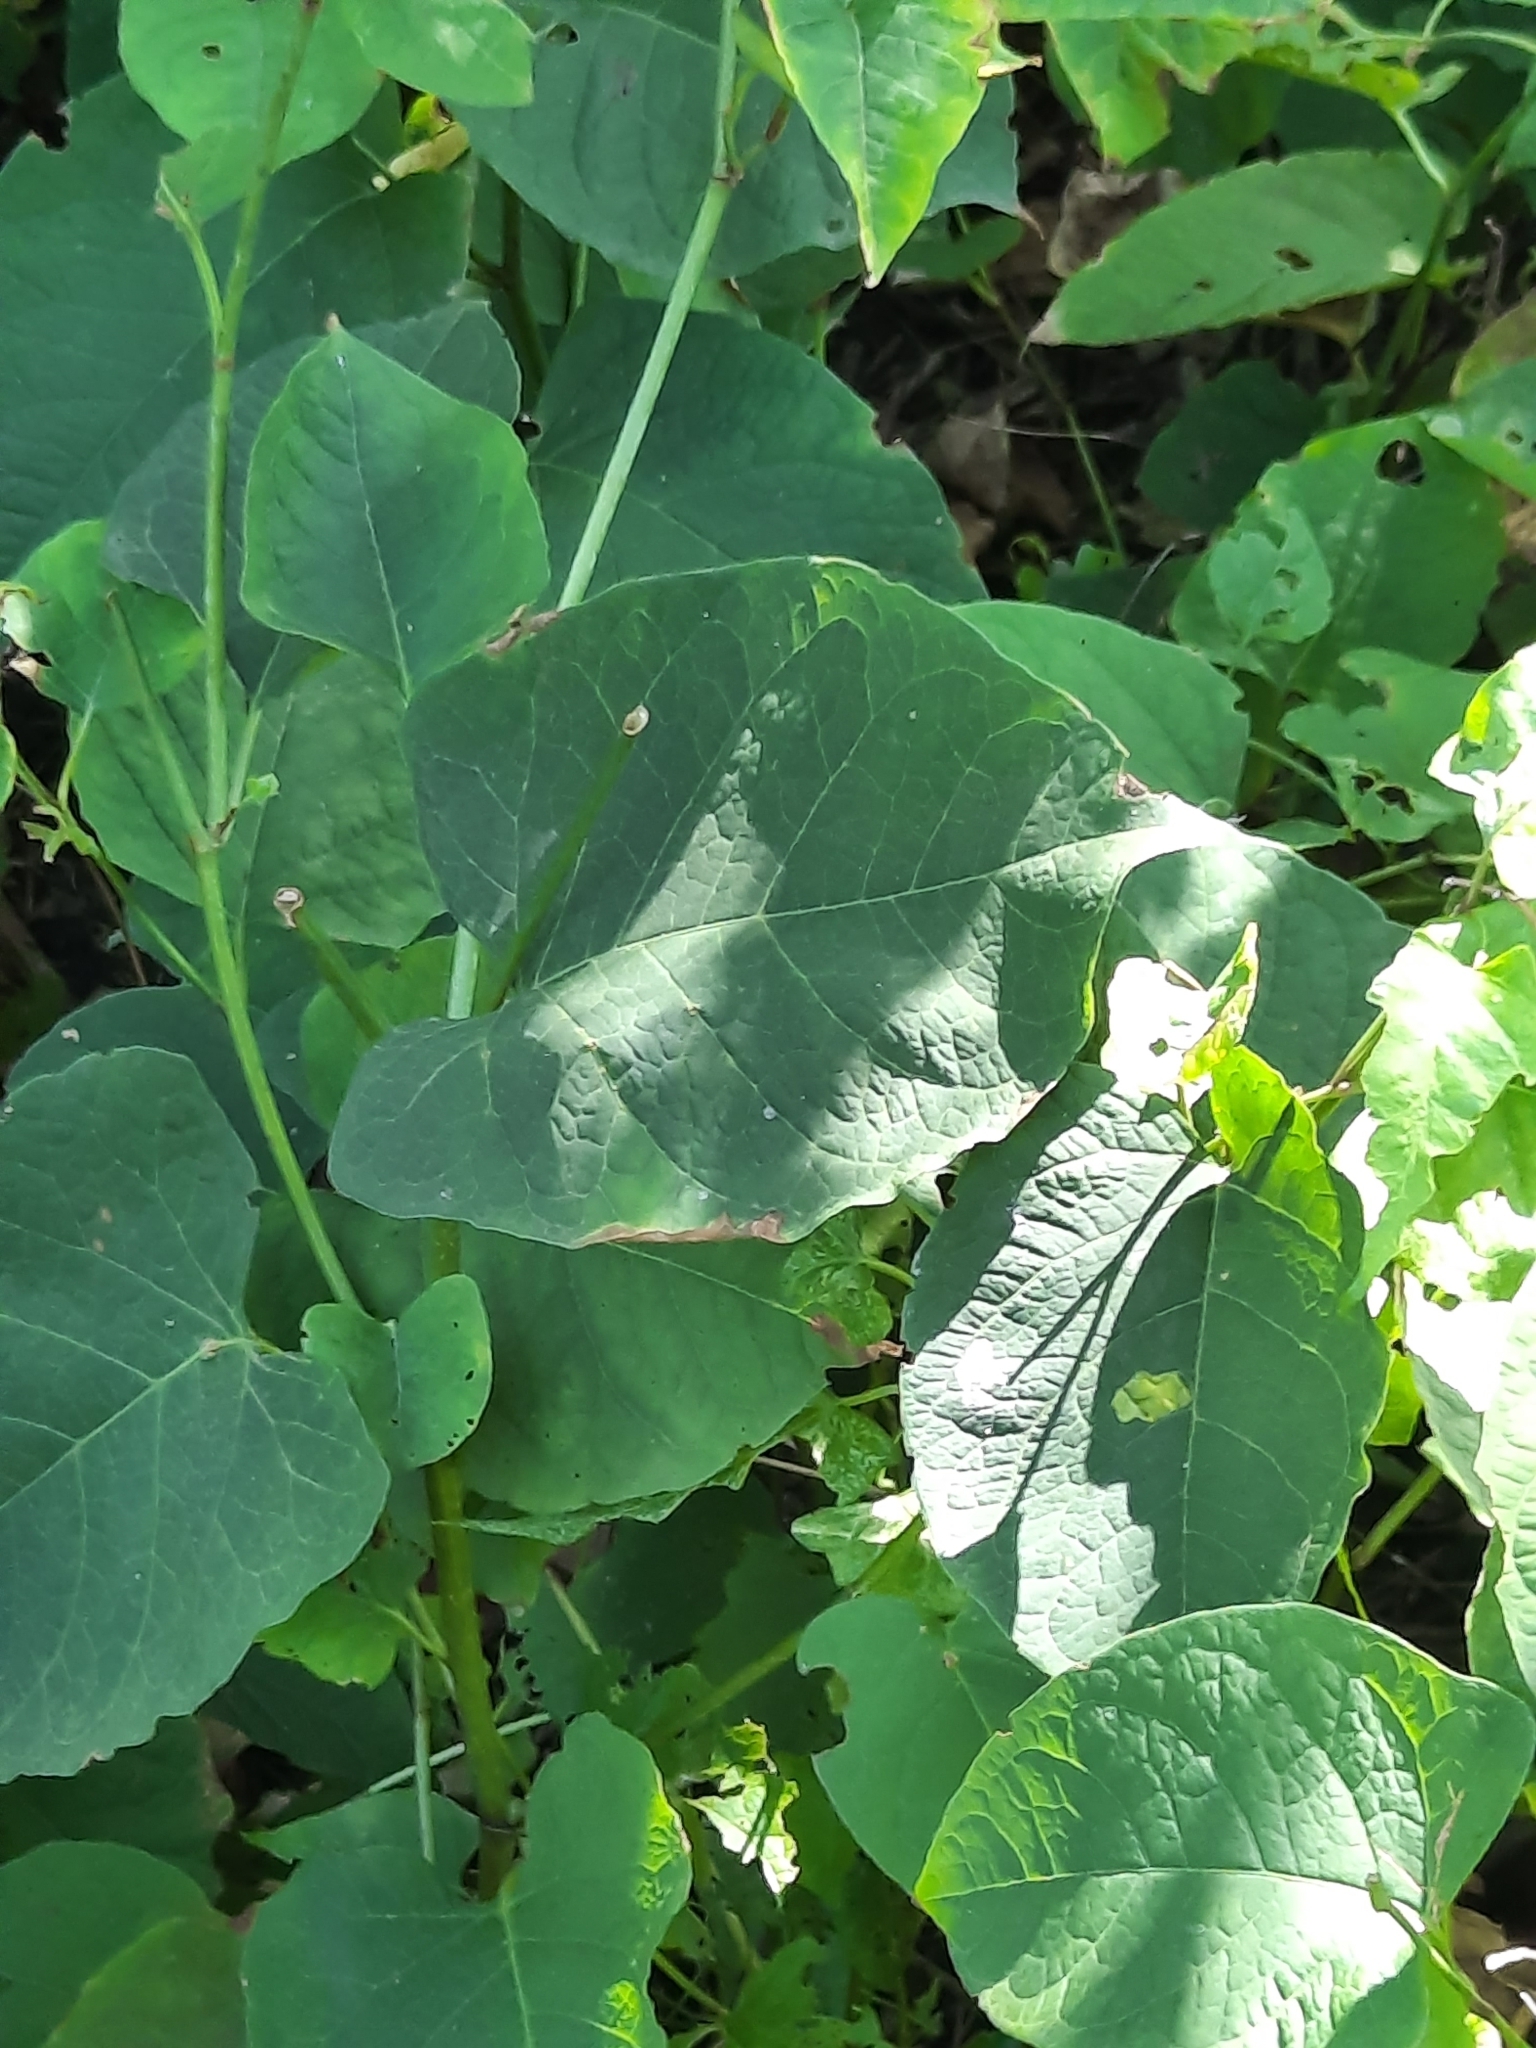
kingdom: Plantae
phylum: Tracheophyta
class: Magnoliopsida
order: Caryophyllales
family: Polygonaceae
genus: Reynoutria
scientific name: Reynoutria sachalinensis
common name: Giant knotweed
